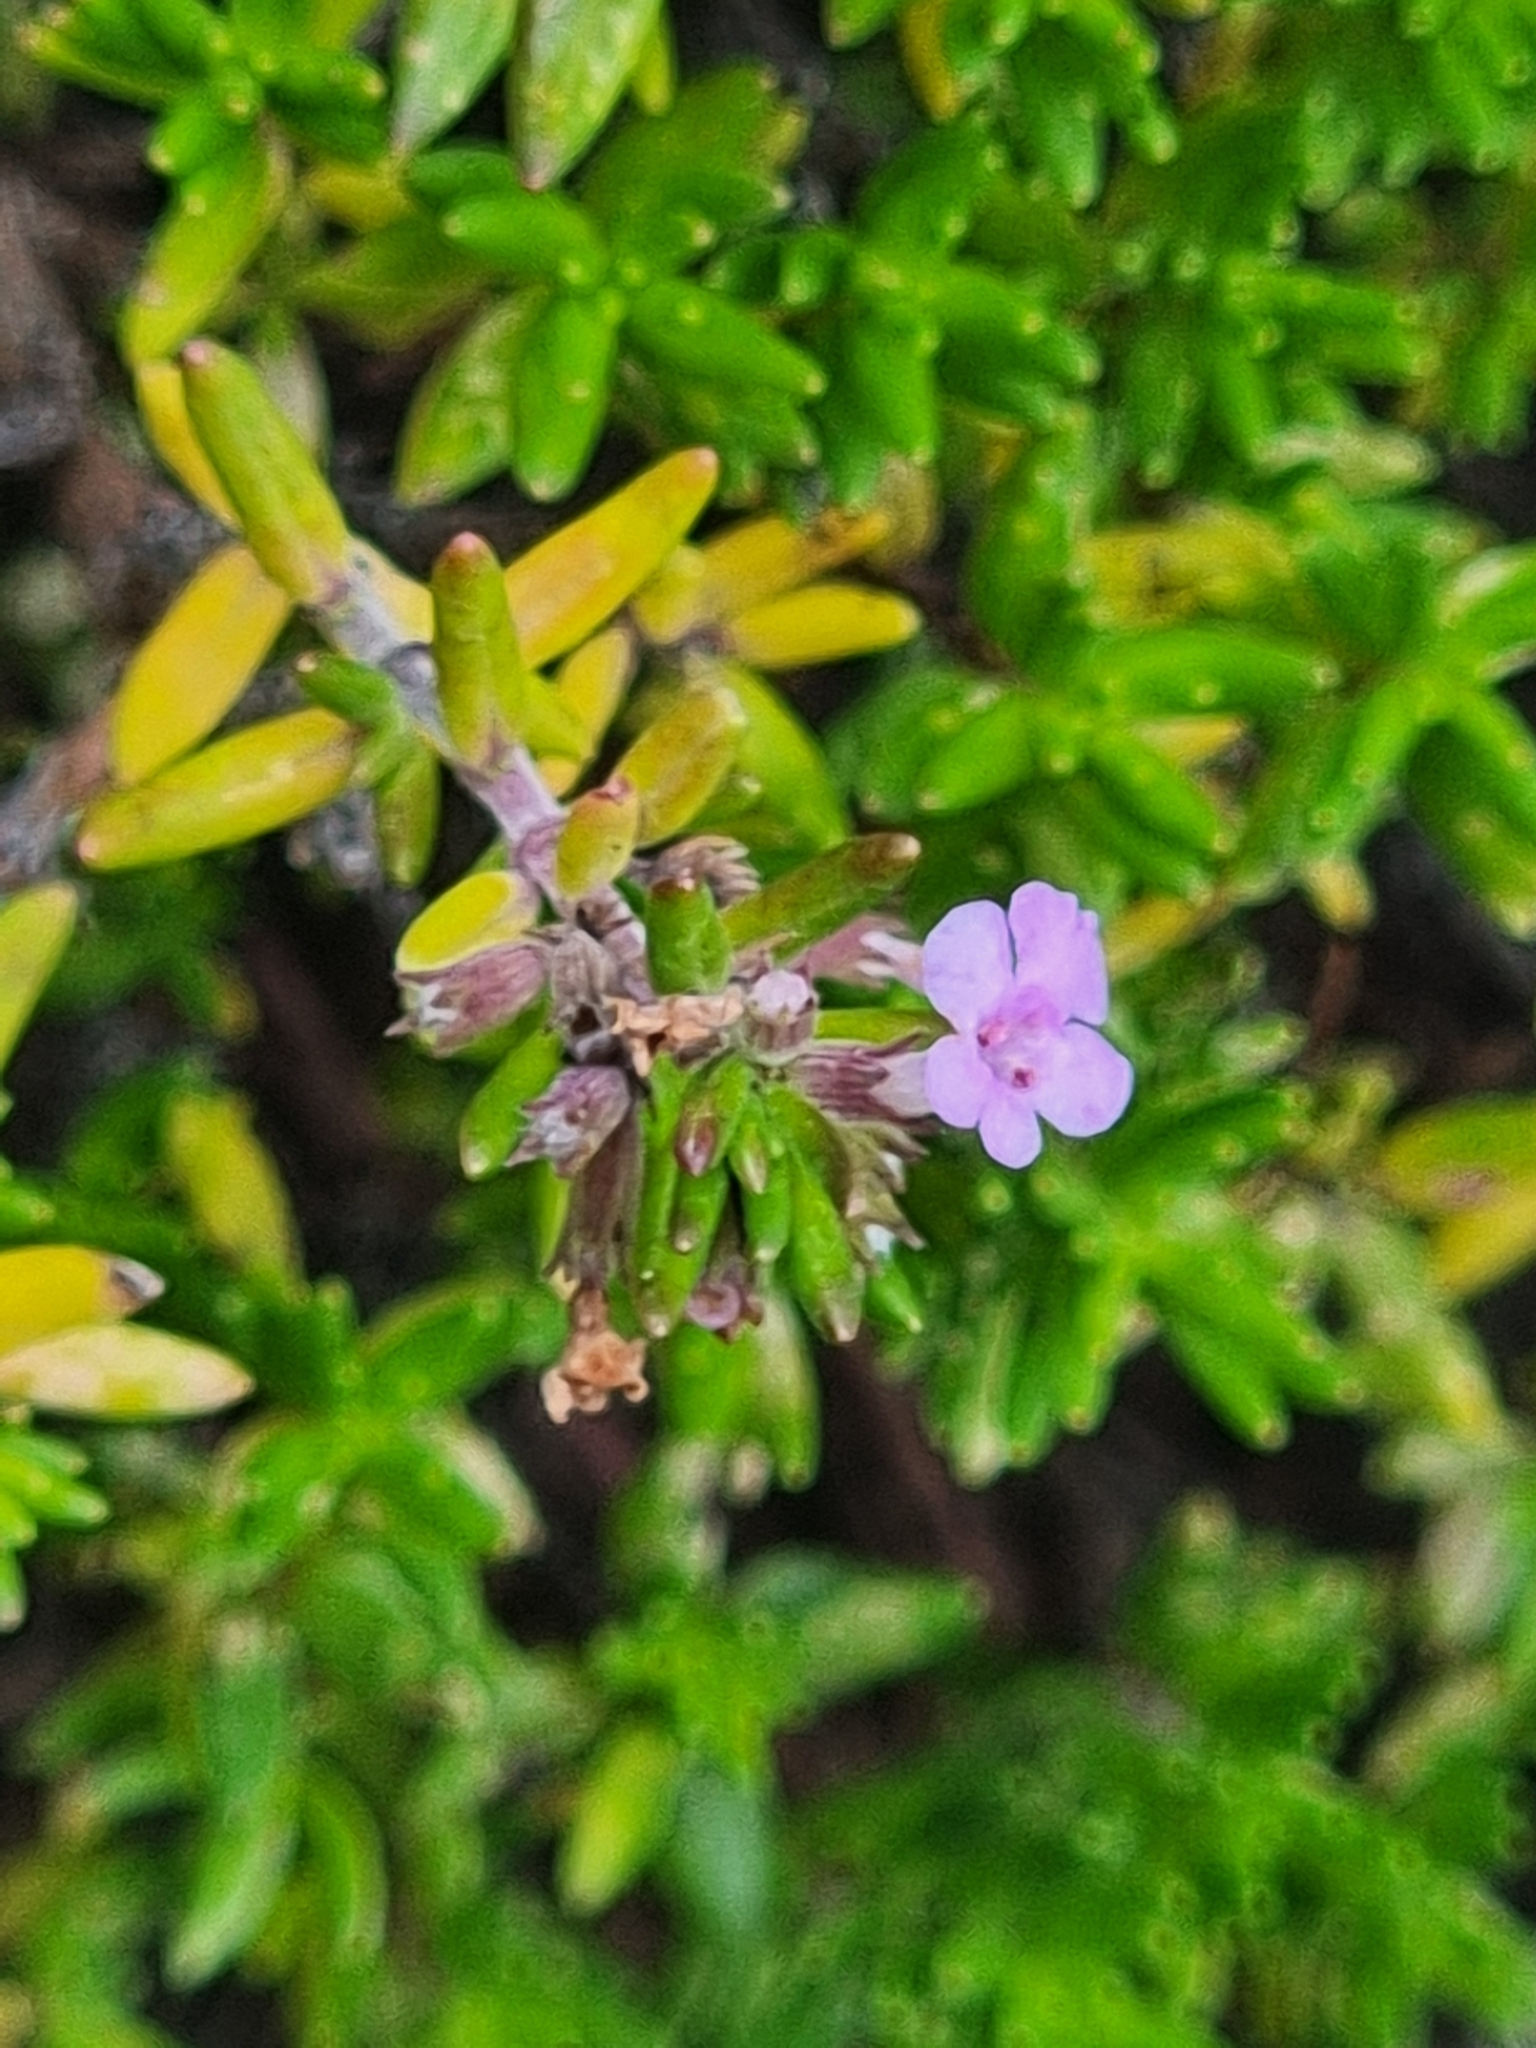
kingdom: Plantae
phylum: Tracheophyta
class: Magnoliopsida
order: Lamiales
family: Lamiaceae
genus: Micromeria
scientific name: Micromeria maderensis
